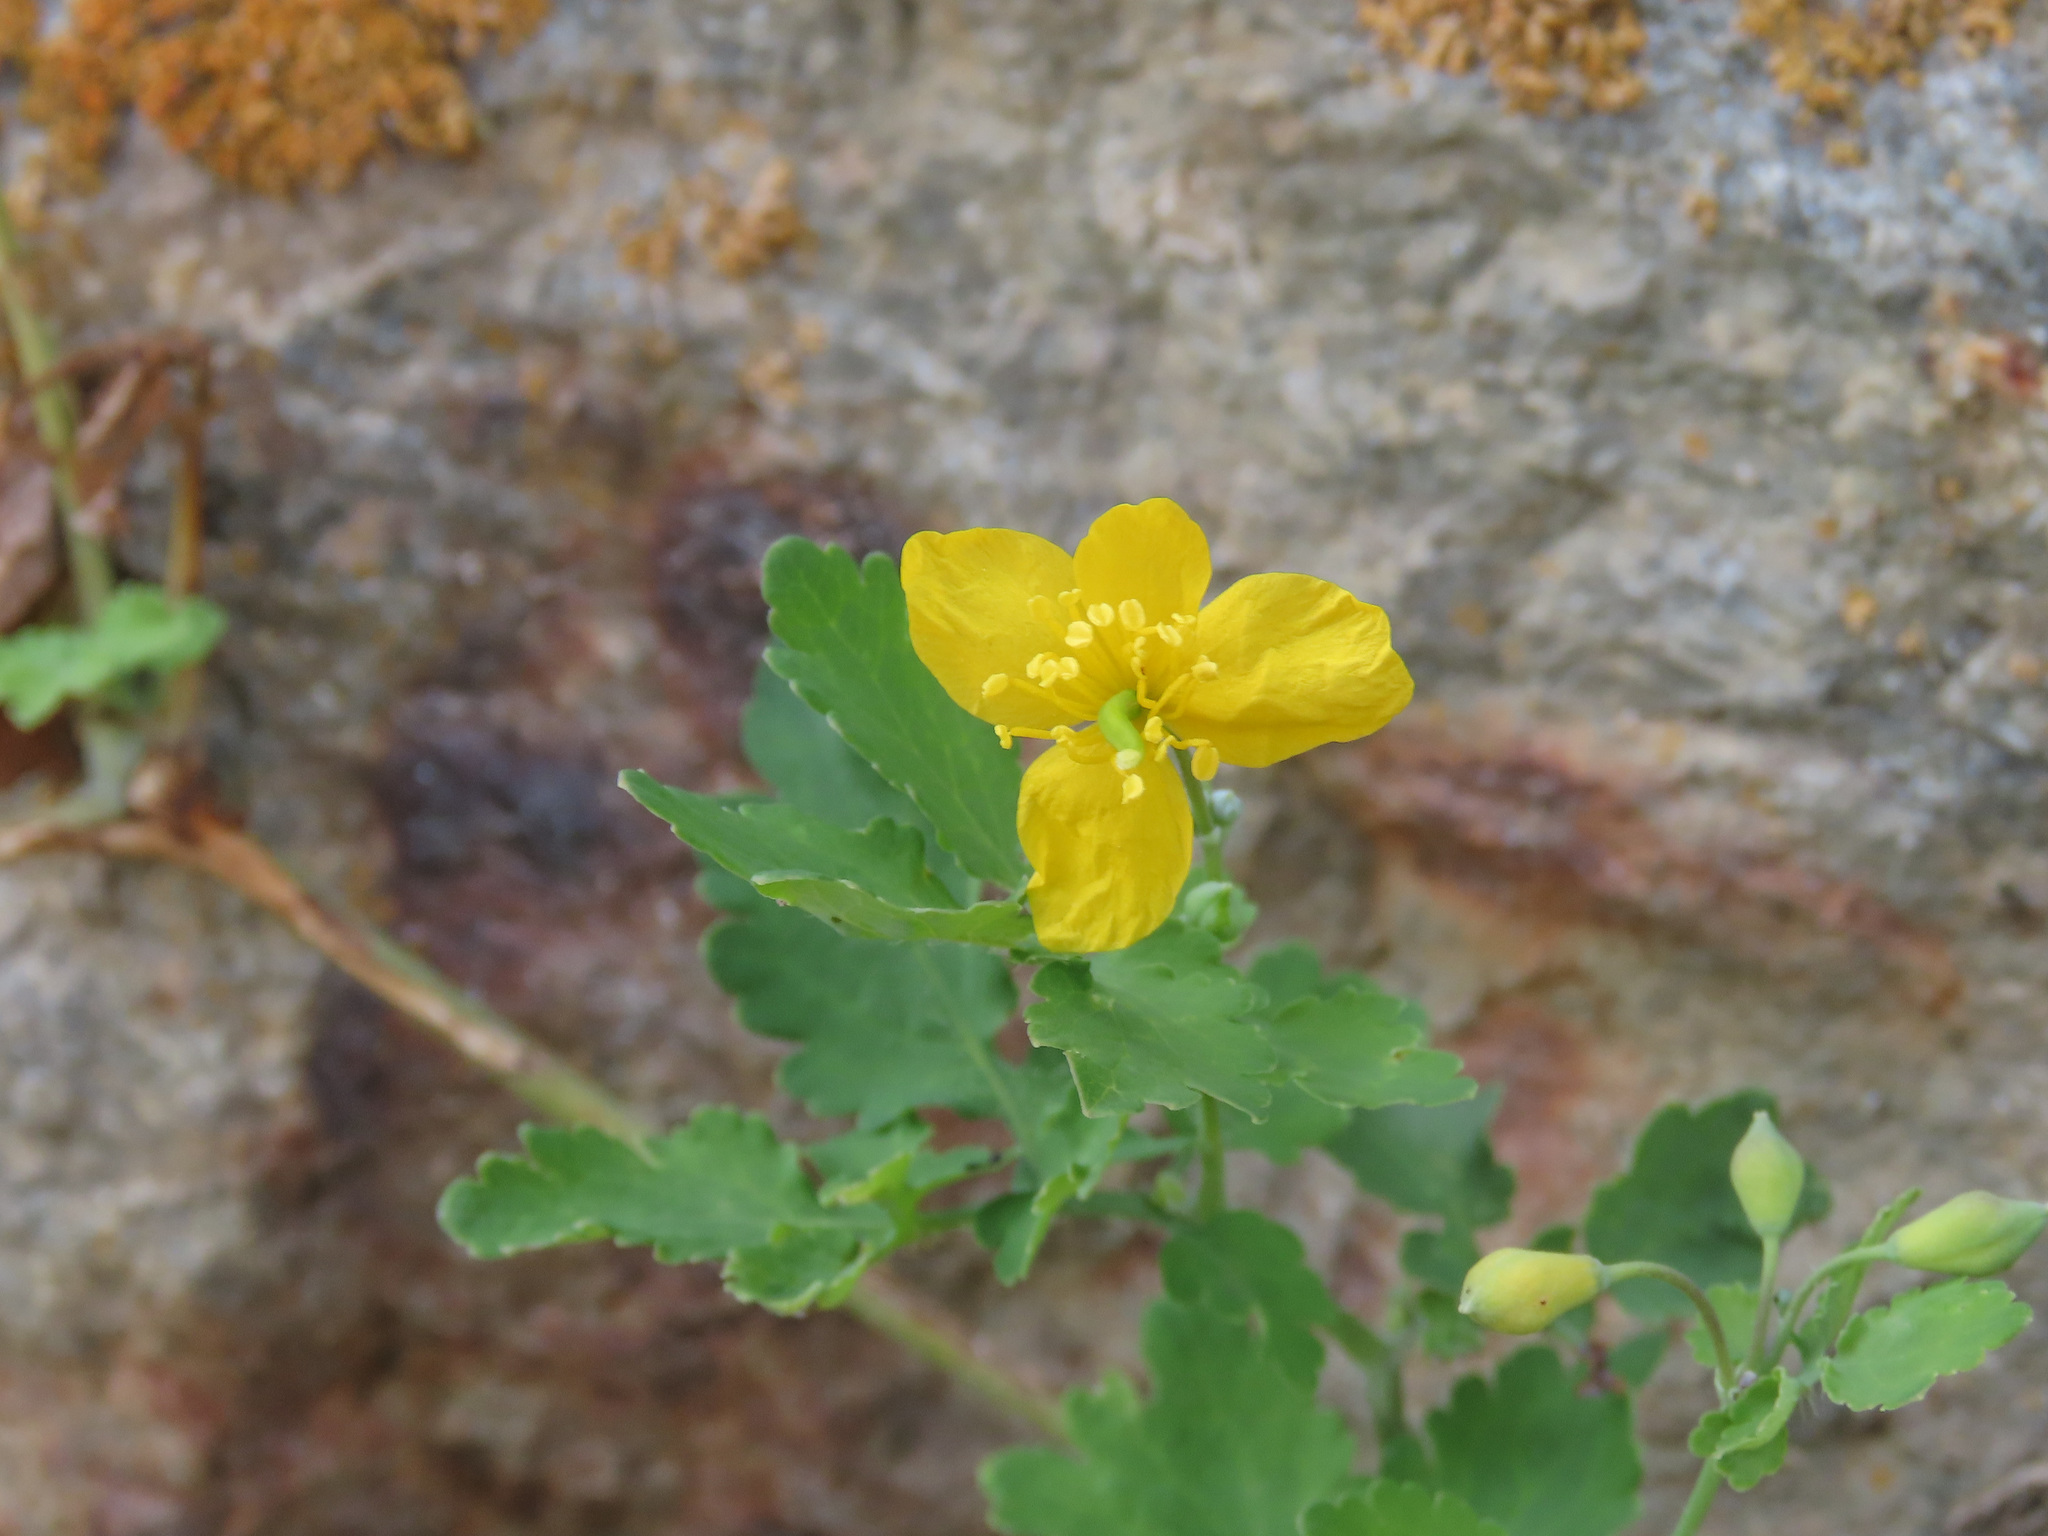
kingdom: Plantae
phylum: Tracheophyta
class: Magnoliopsida
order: Ranunculales
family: Papaveraceae
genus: Chelidonium
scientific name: Chelidonium majus
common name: Greater celandine
